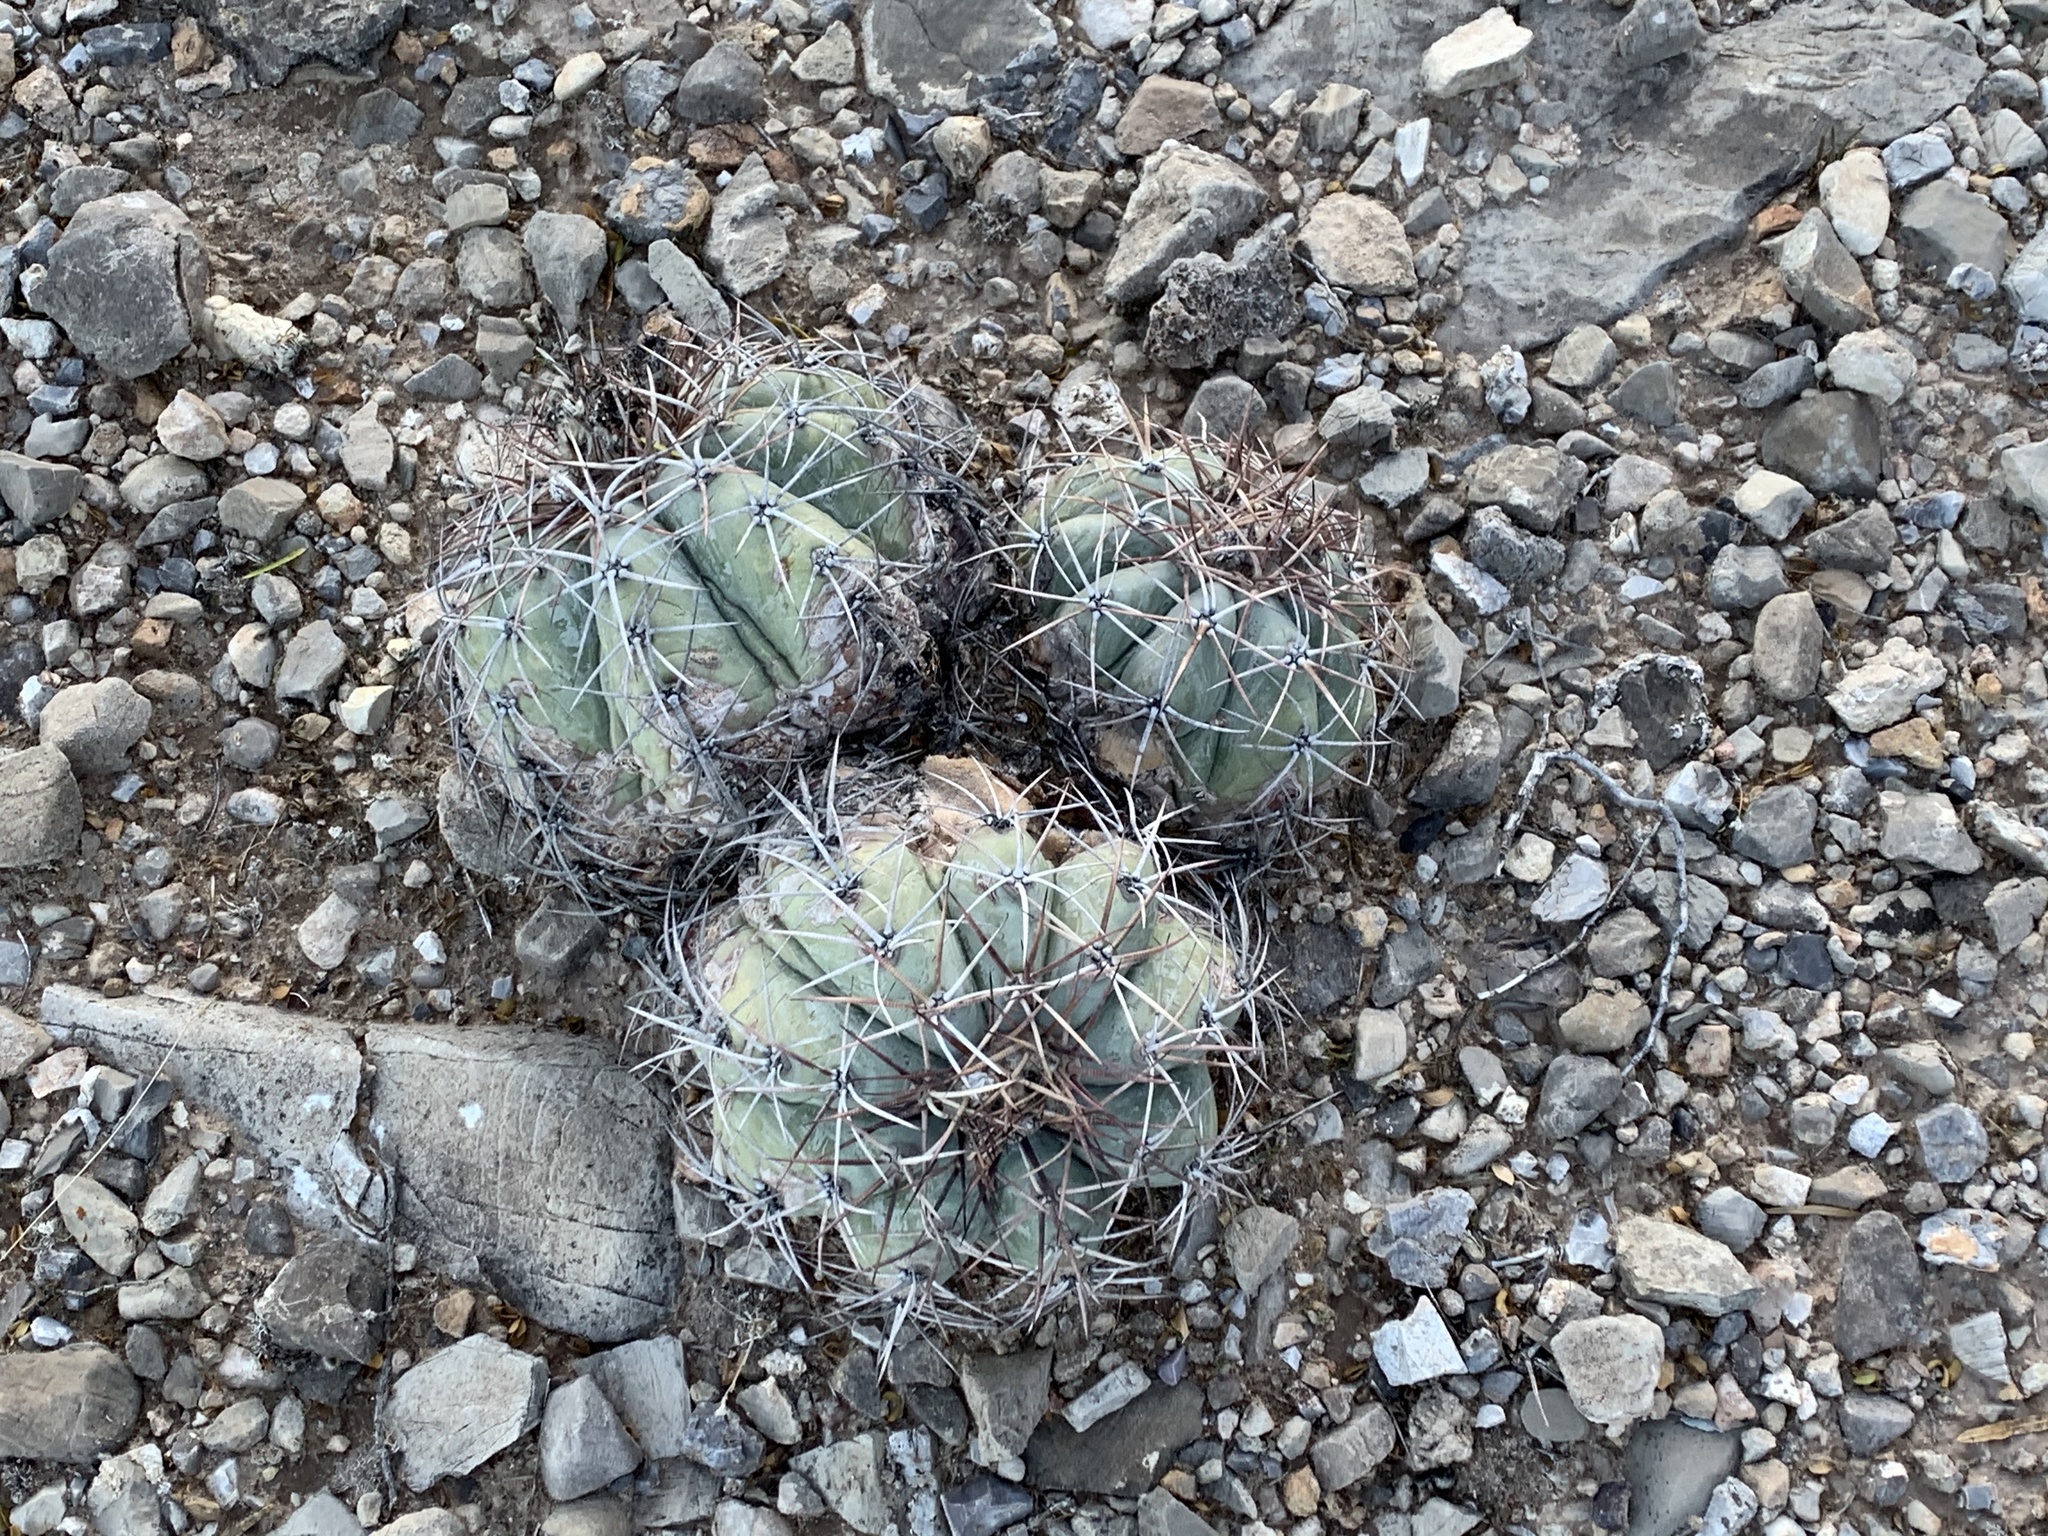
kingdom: Plantae
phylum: Tracheophyta
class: Magnoliopsida
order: Caryophyllales
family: Cactaceae
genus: Echinocactus
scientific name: Echinocactus horizonthalonius
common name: Devilshead
